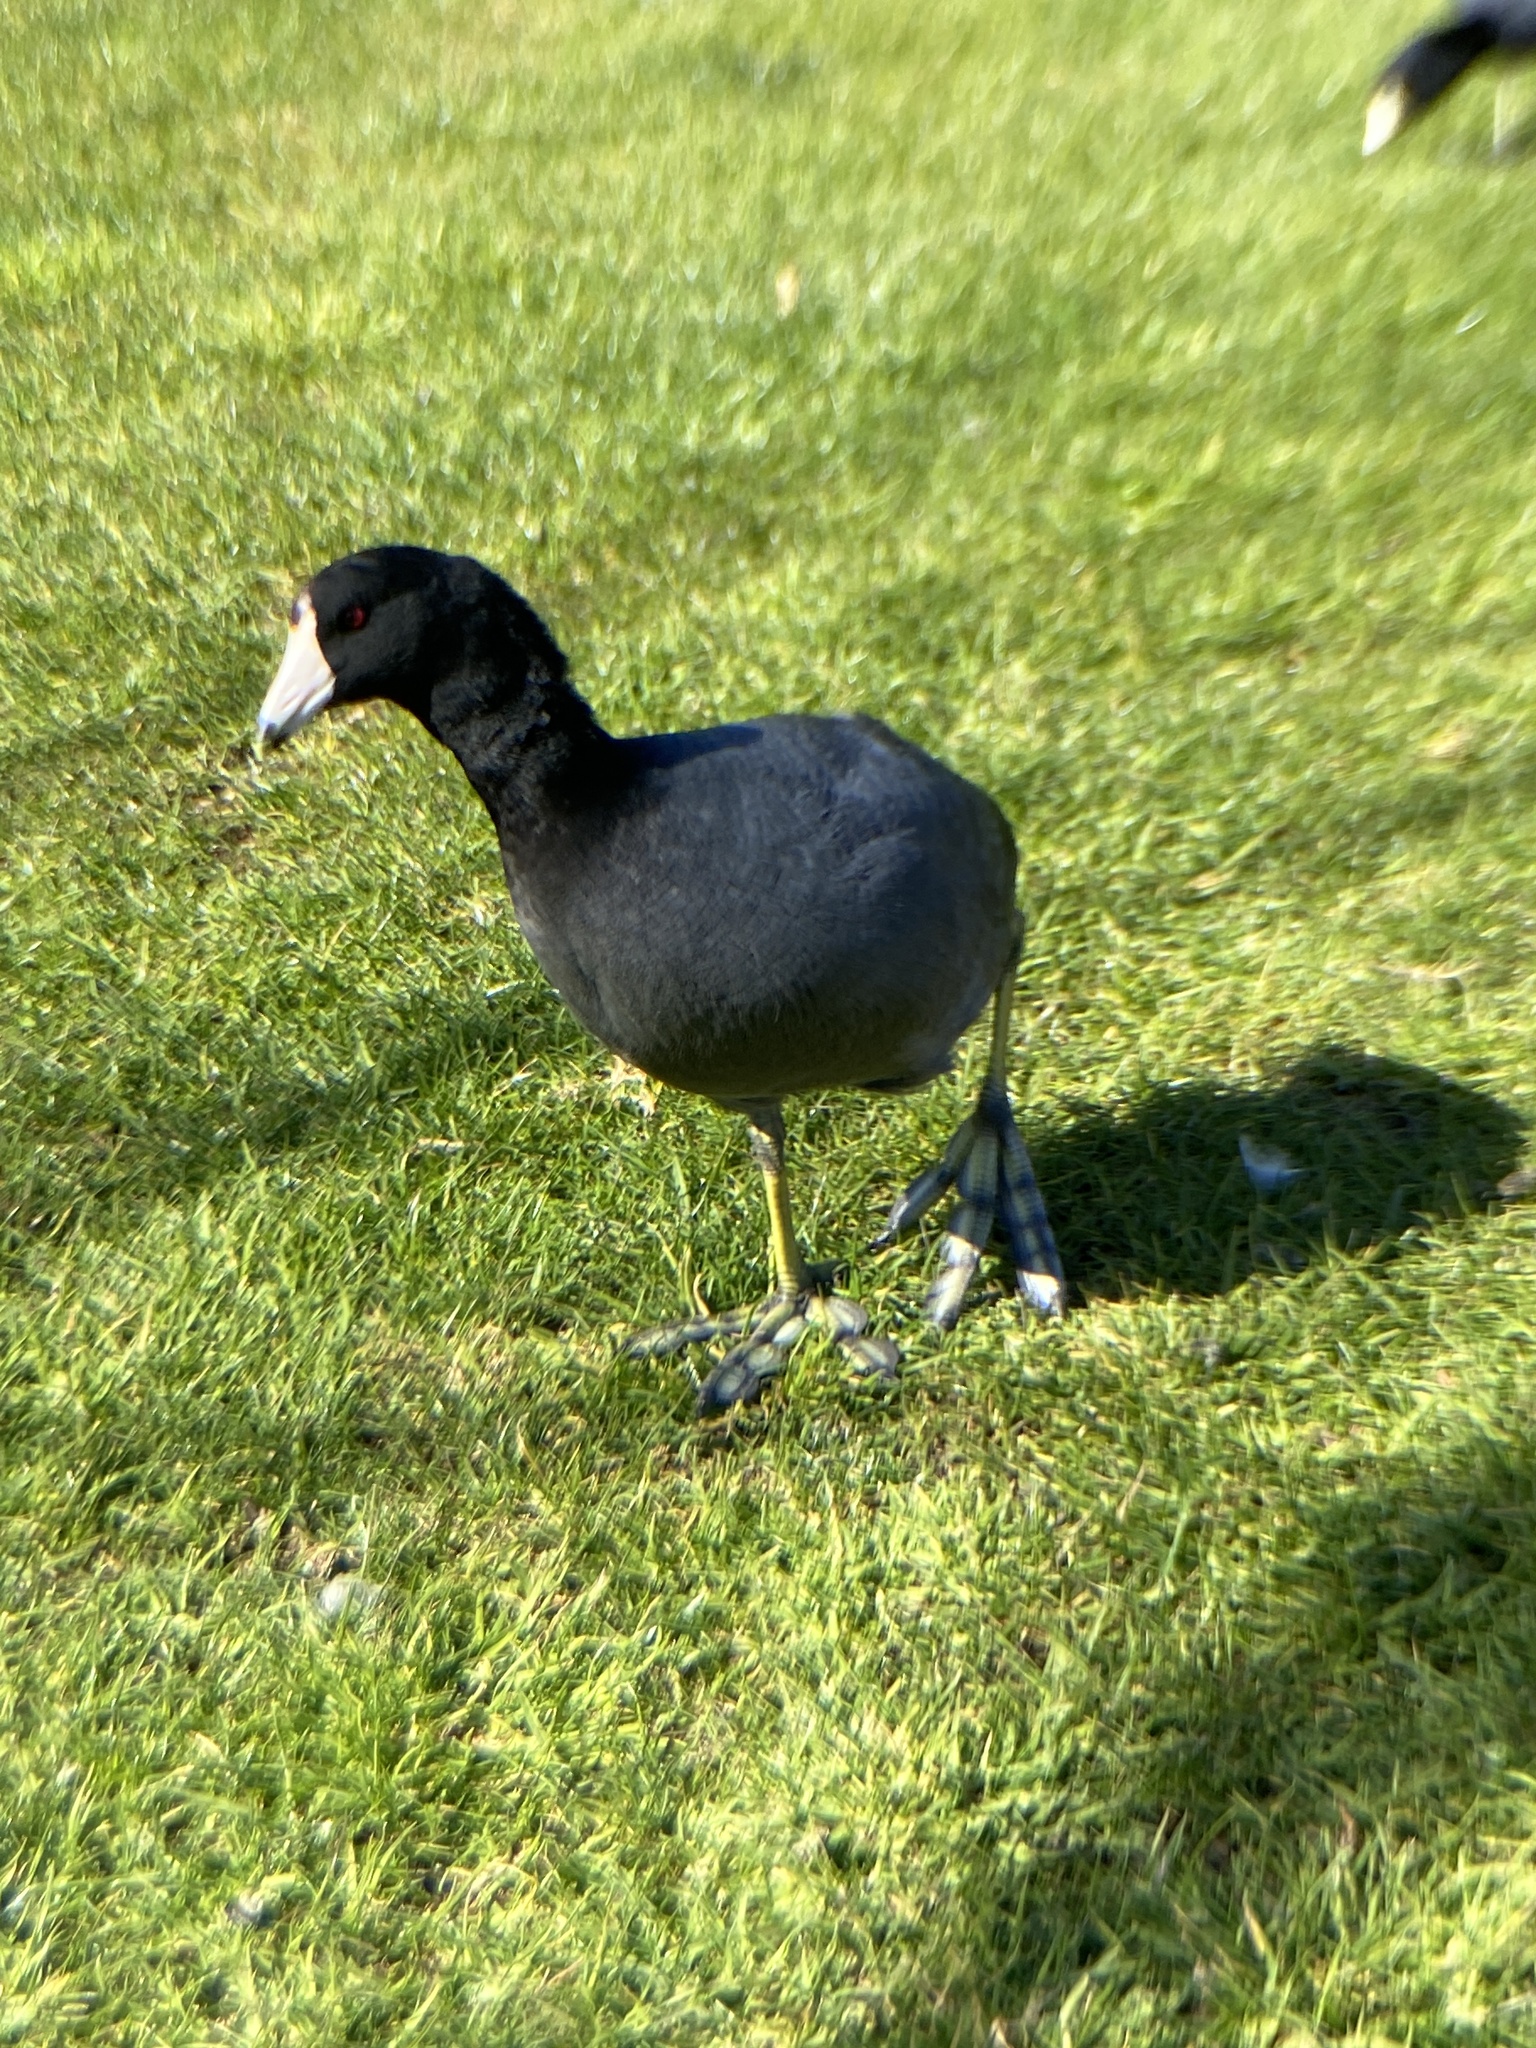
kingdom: Animalia
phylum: Chordata
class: Aves
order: Gruiformes
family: Rallidae
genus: Fulica
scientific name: Fulica americana
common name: American coot
